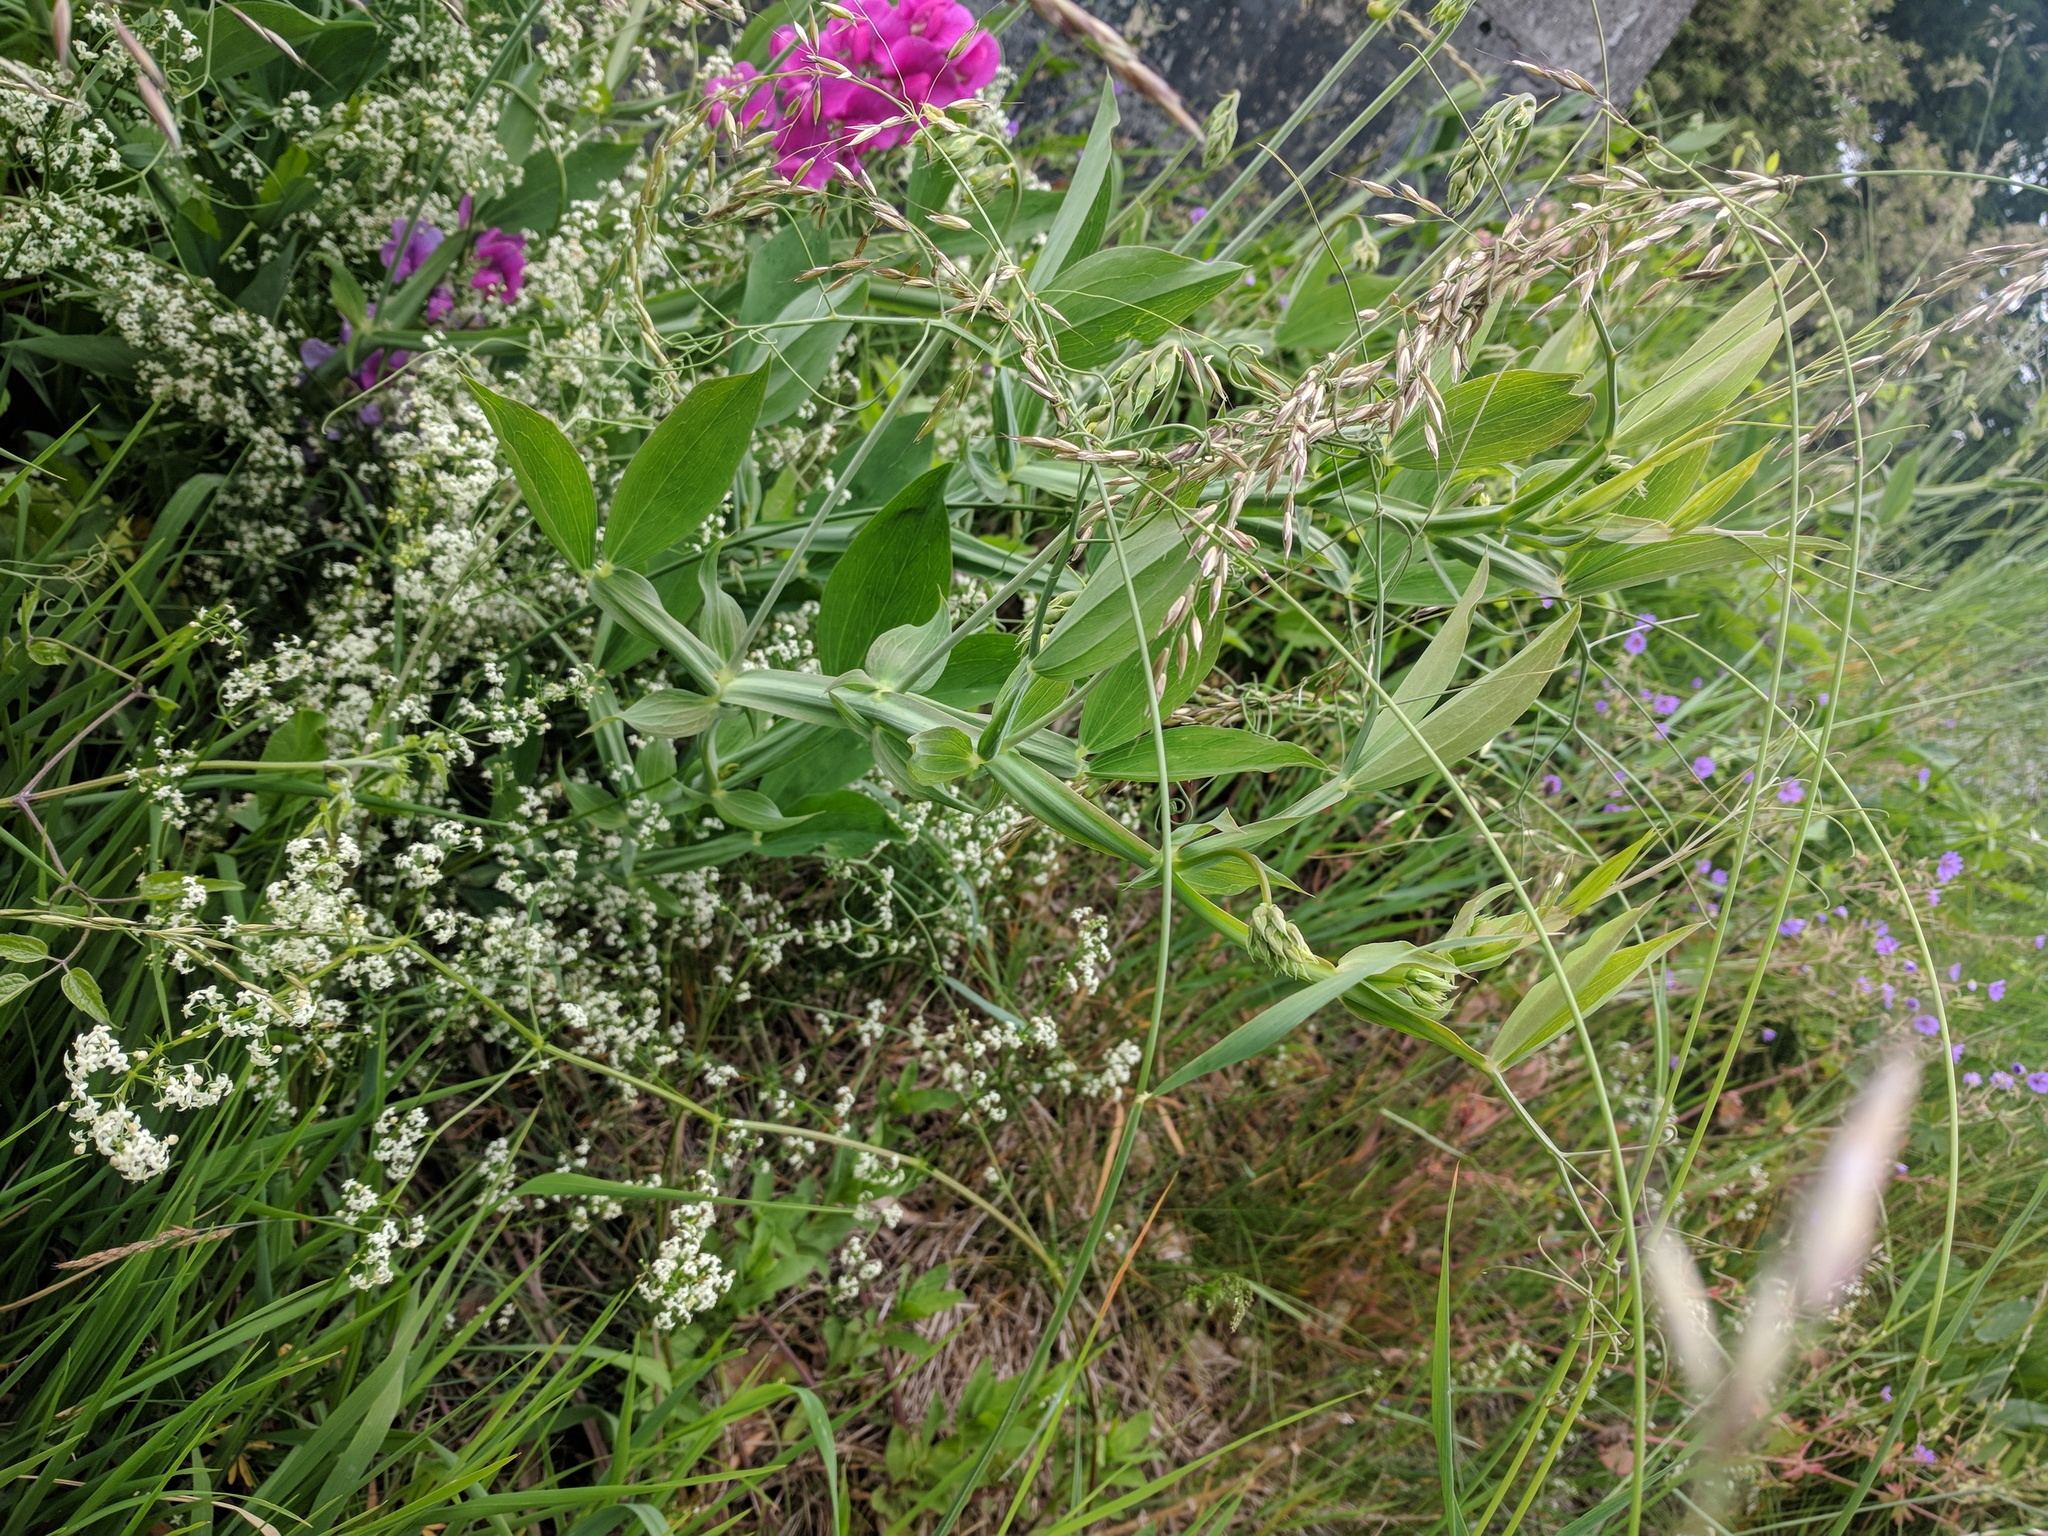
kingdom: Plantae
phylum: Tracheophyta
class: Magnoliopsida
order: Fabales
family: Fabaceae
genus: Lathyrus
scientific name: Lathyrus latifolius
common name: Perennial pea
